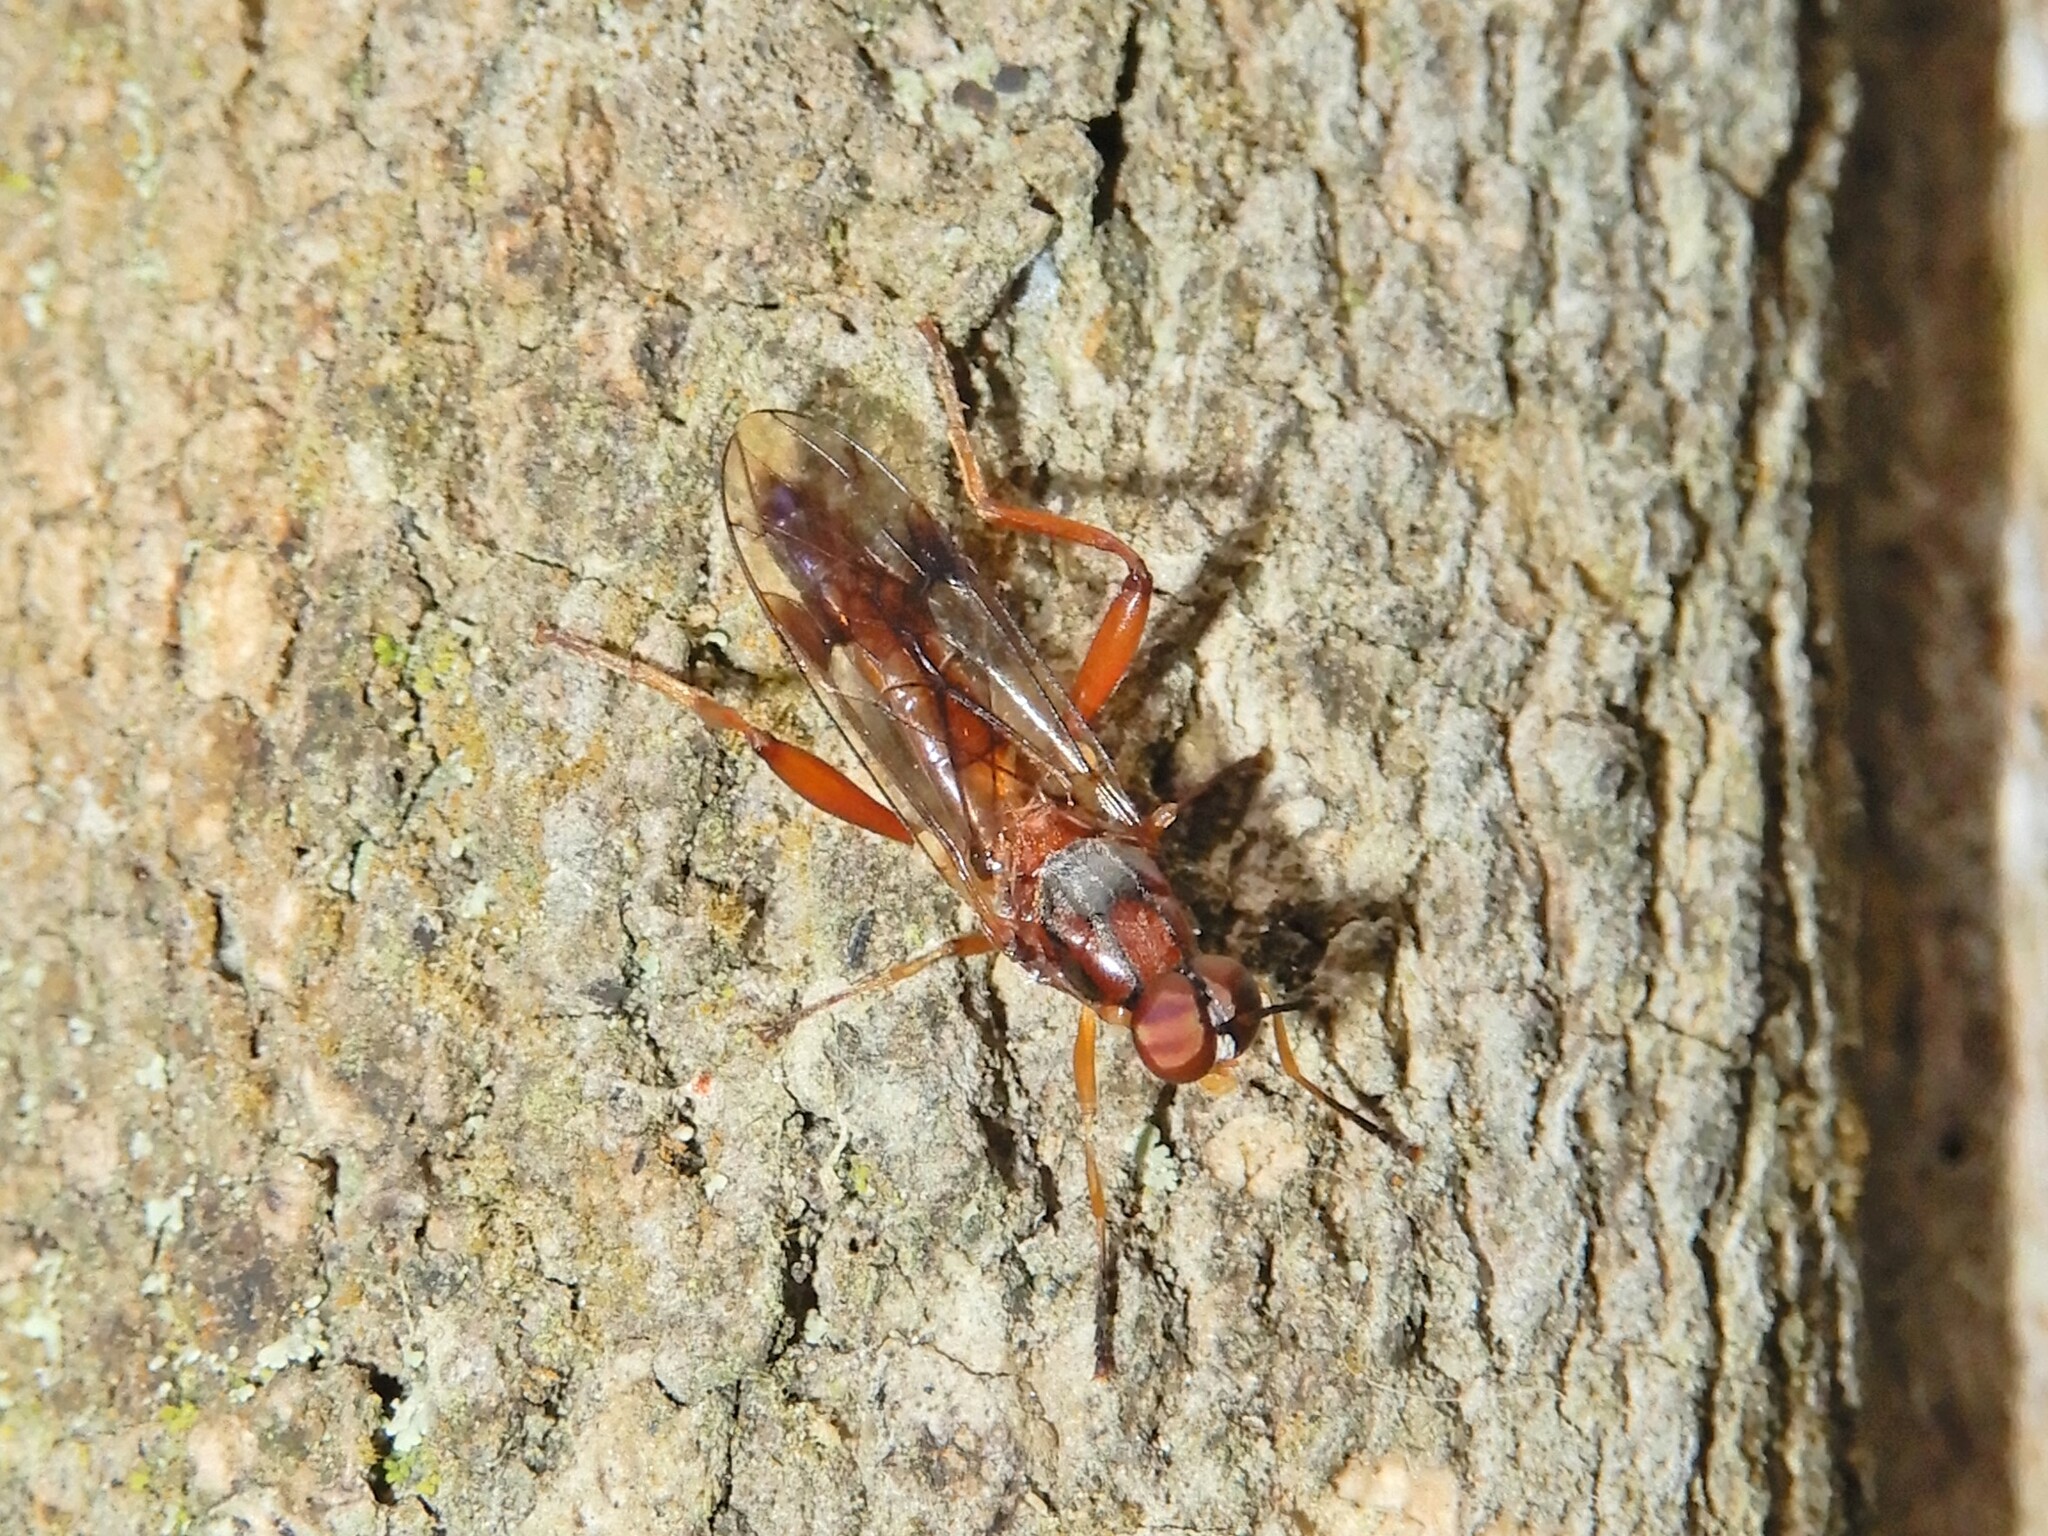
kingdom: Animalia
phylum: Arthropoda
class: Insecta
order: Diptera
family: Stratiomyidae
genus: Benhamyia
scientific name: Benhamyia straznitzkii
